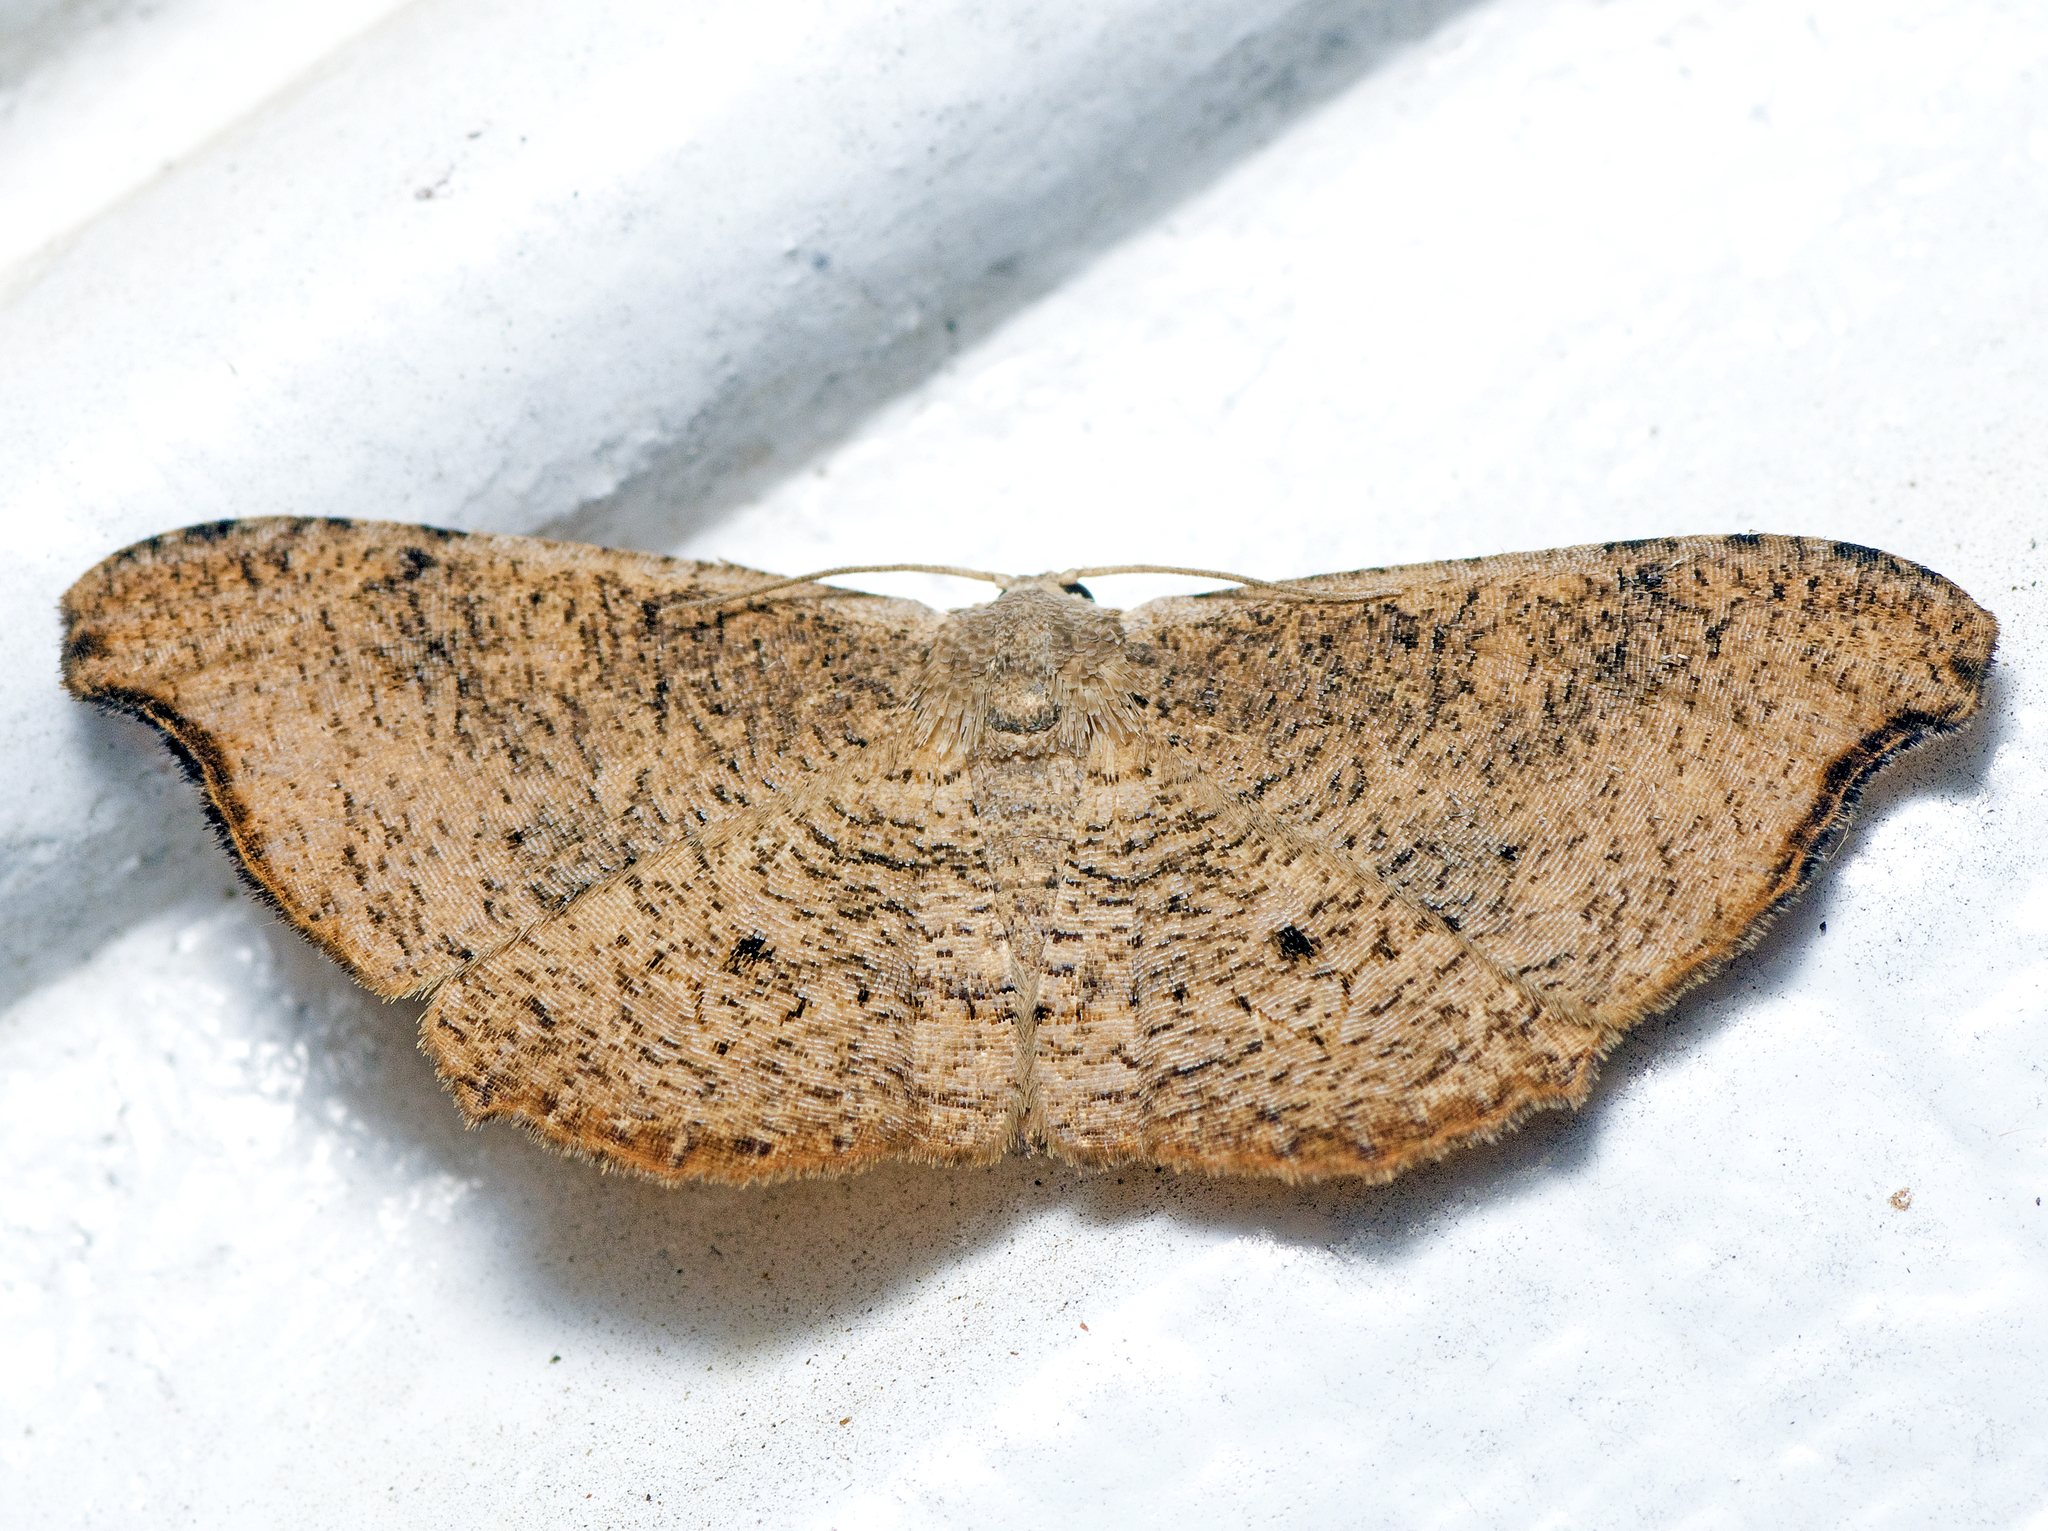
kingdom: Animalia
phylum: Arthropoda
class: Insecta
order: Lepidoptera
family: Uraniidae
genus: Epiplema
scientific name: Epiplema argillodes
